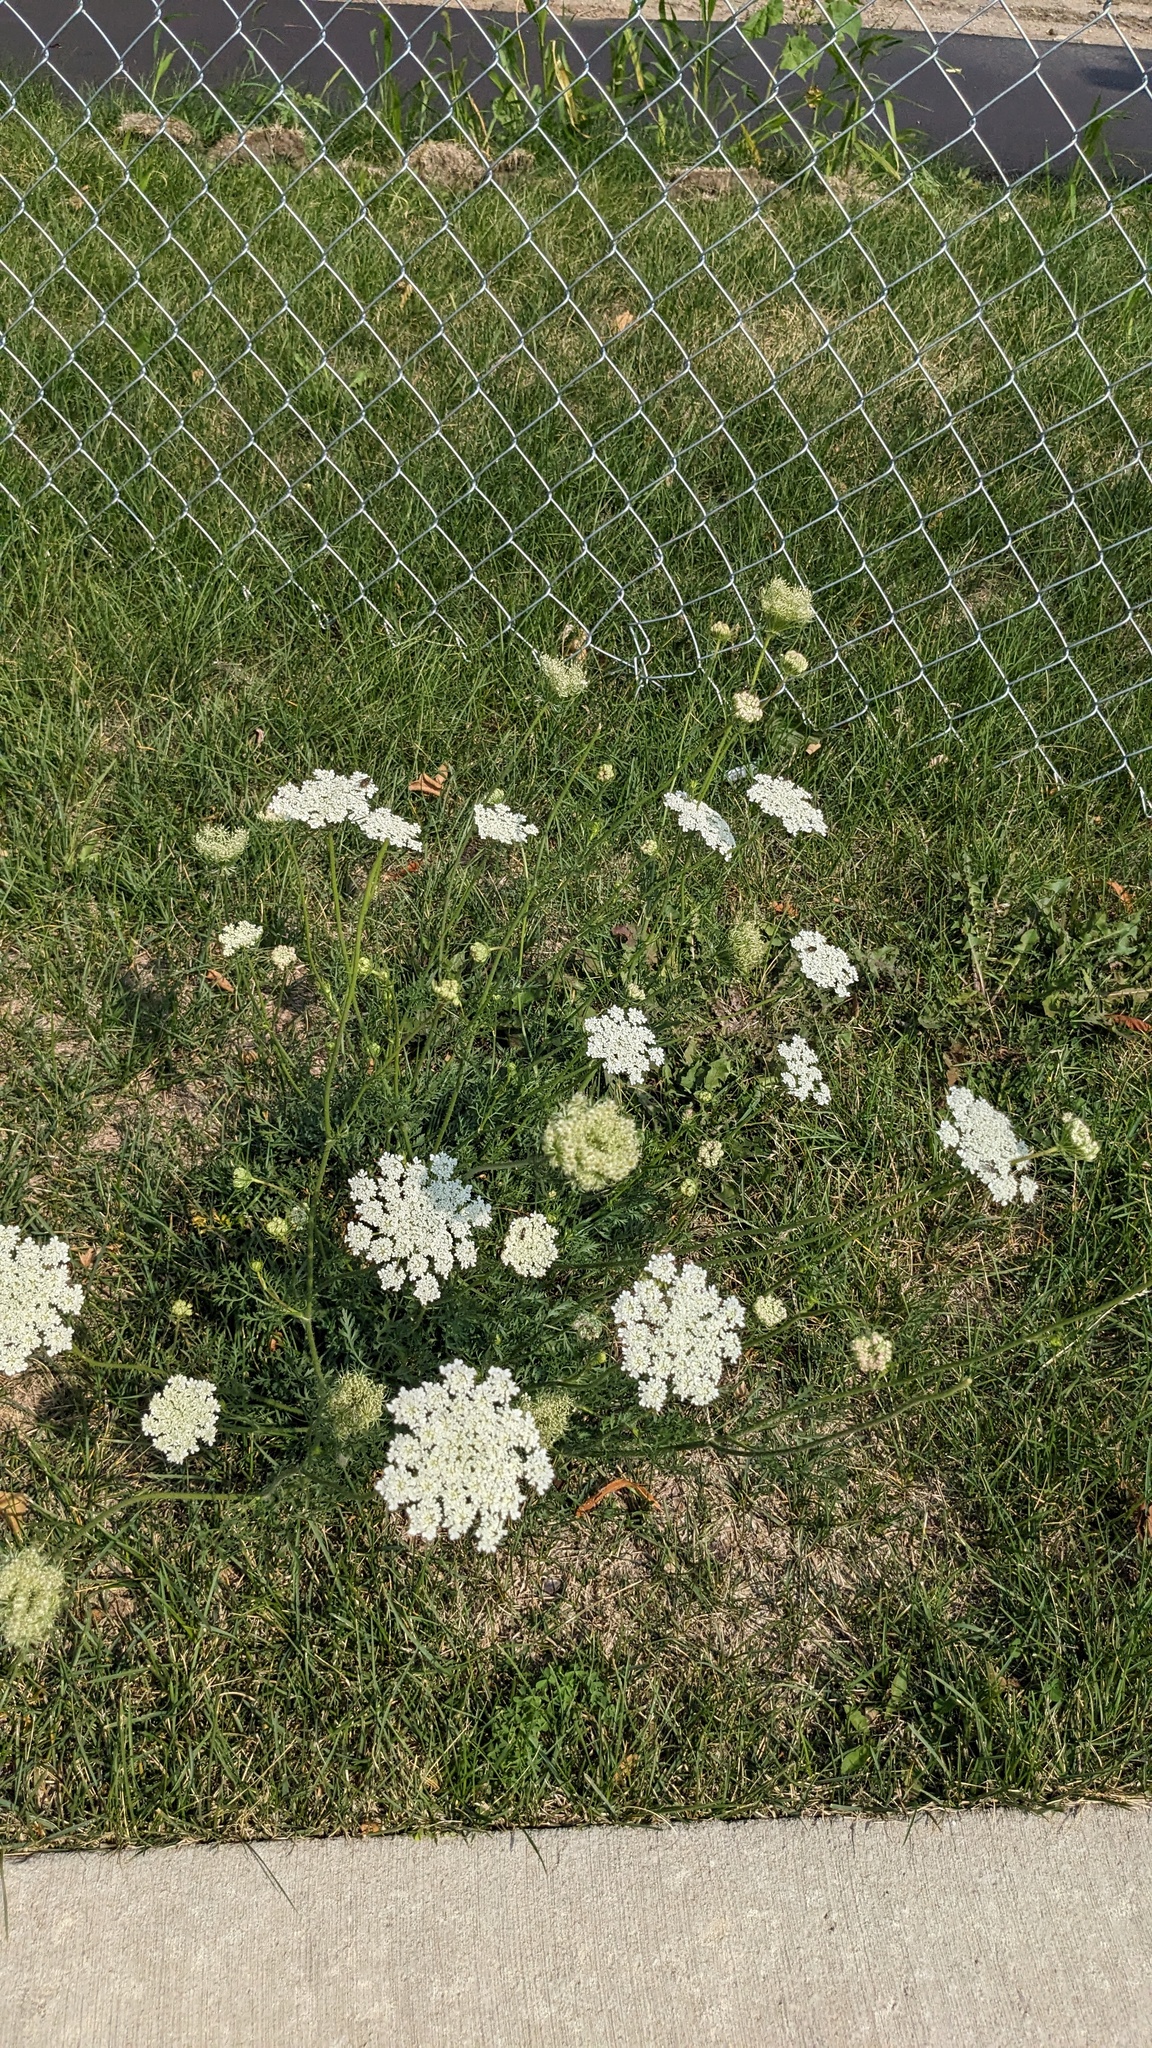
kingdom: Plantae
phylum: Tracheophyta
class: Magnoliopsida
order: Apiales
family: Apiaceae
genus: Daucus
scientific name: Daucus carota
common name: Wild carrot
